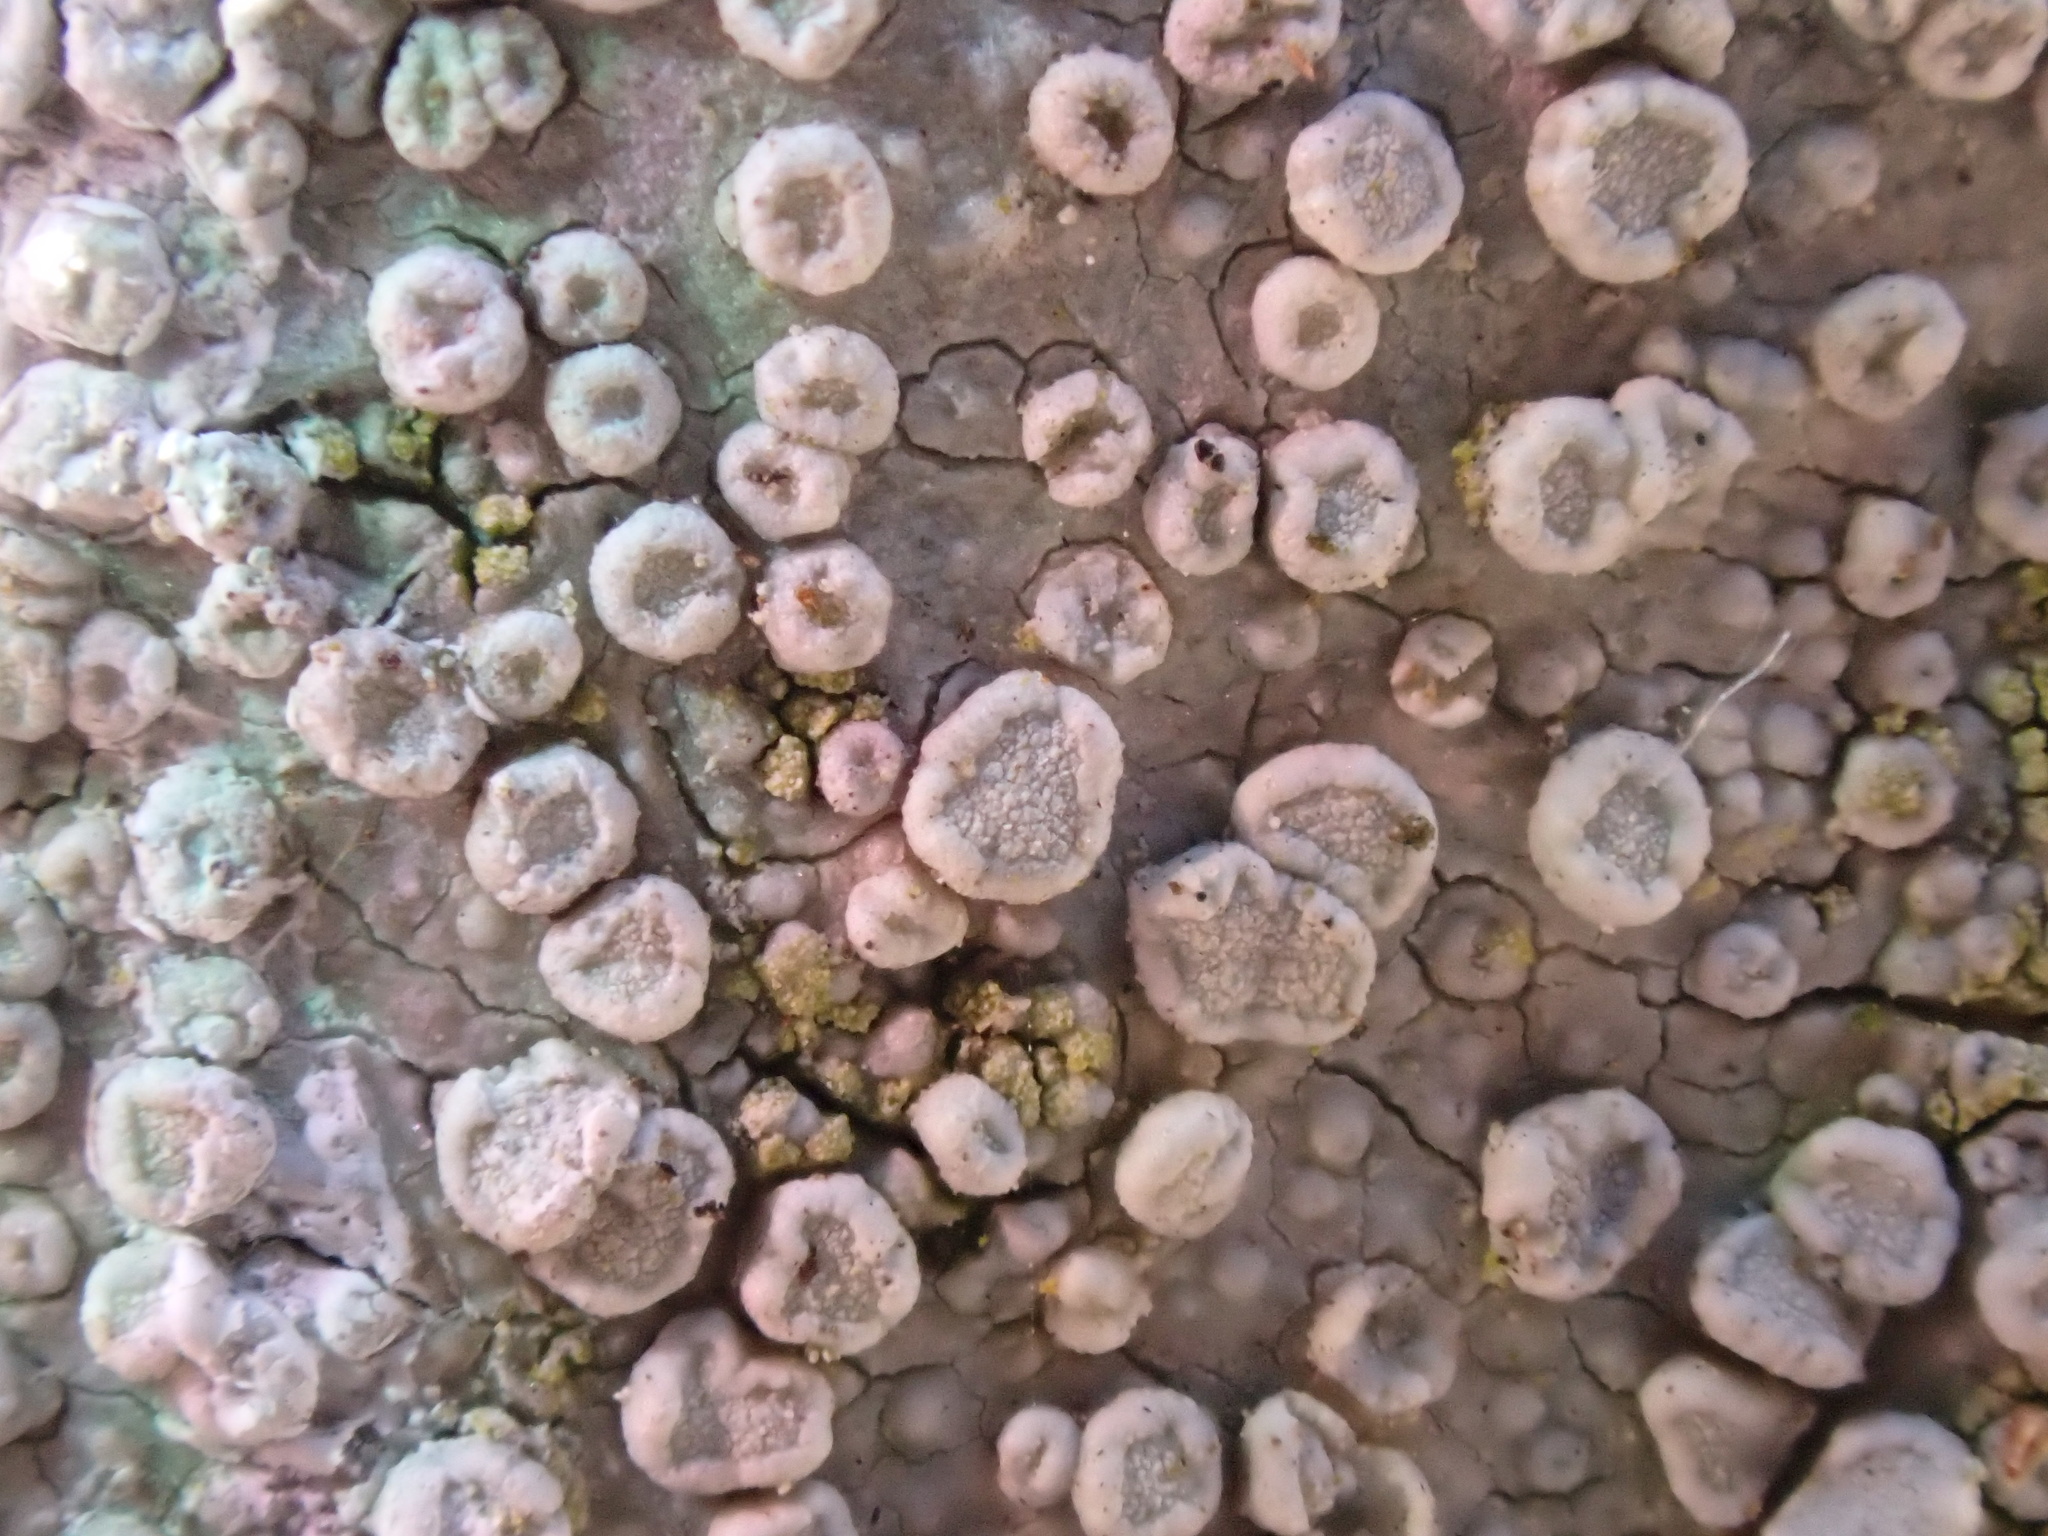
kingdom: Fungi
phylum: Ascomycota
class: Lecanoromycetes
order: Lecanorales
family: Lecanoraceae
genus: Glaucomaria
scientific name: Glaucomaria carpinea
